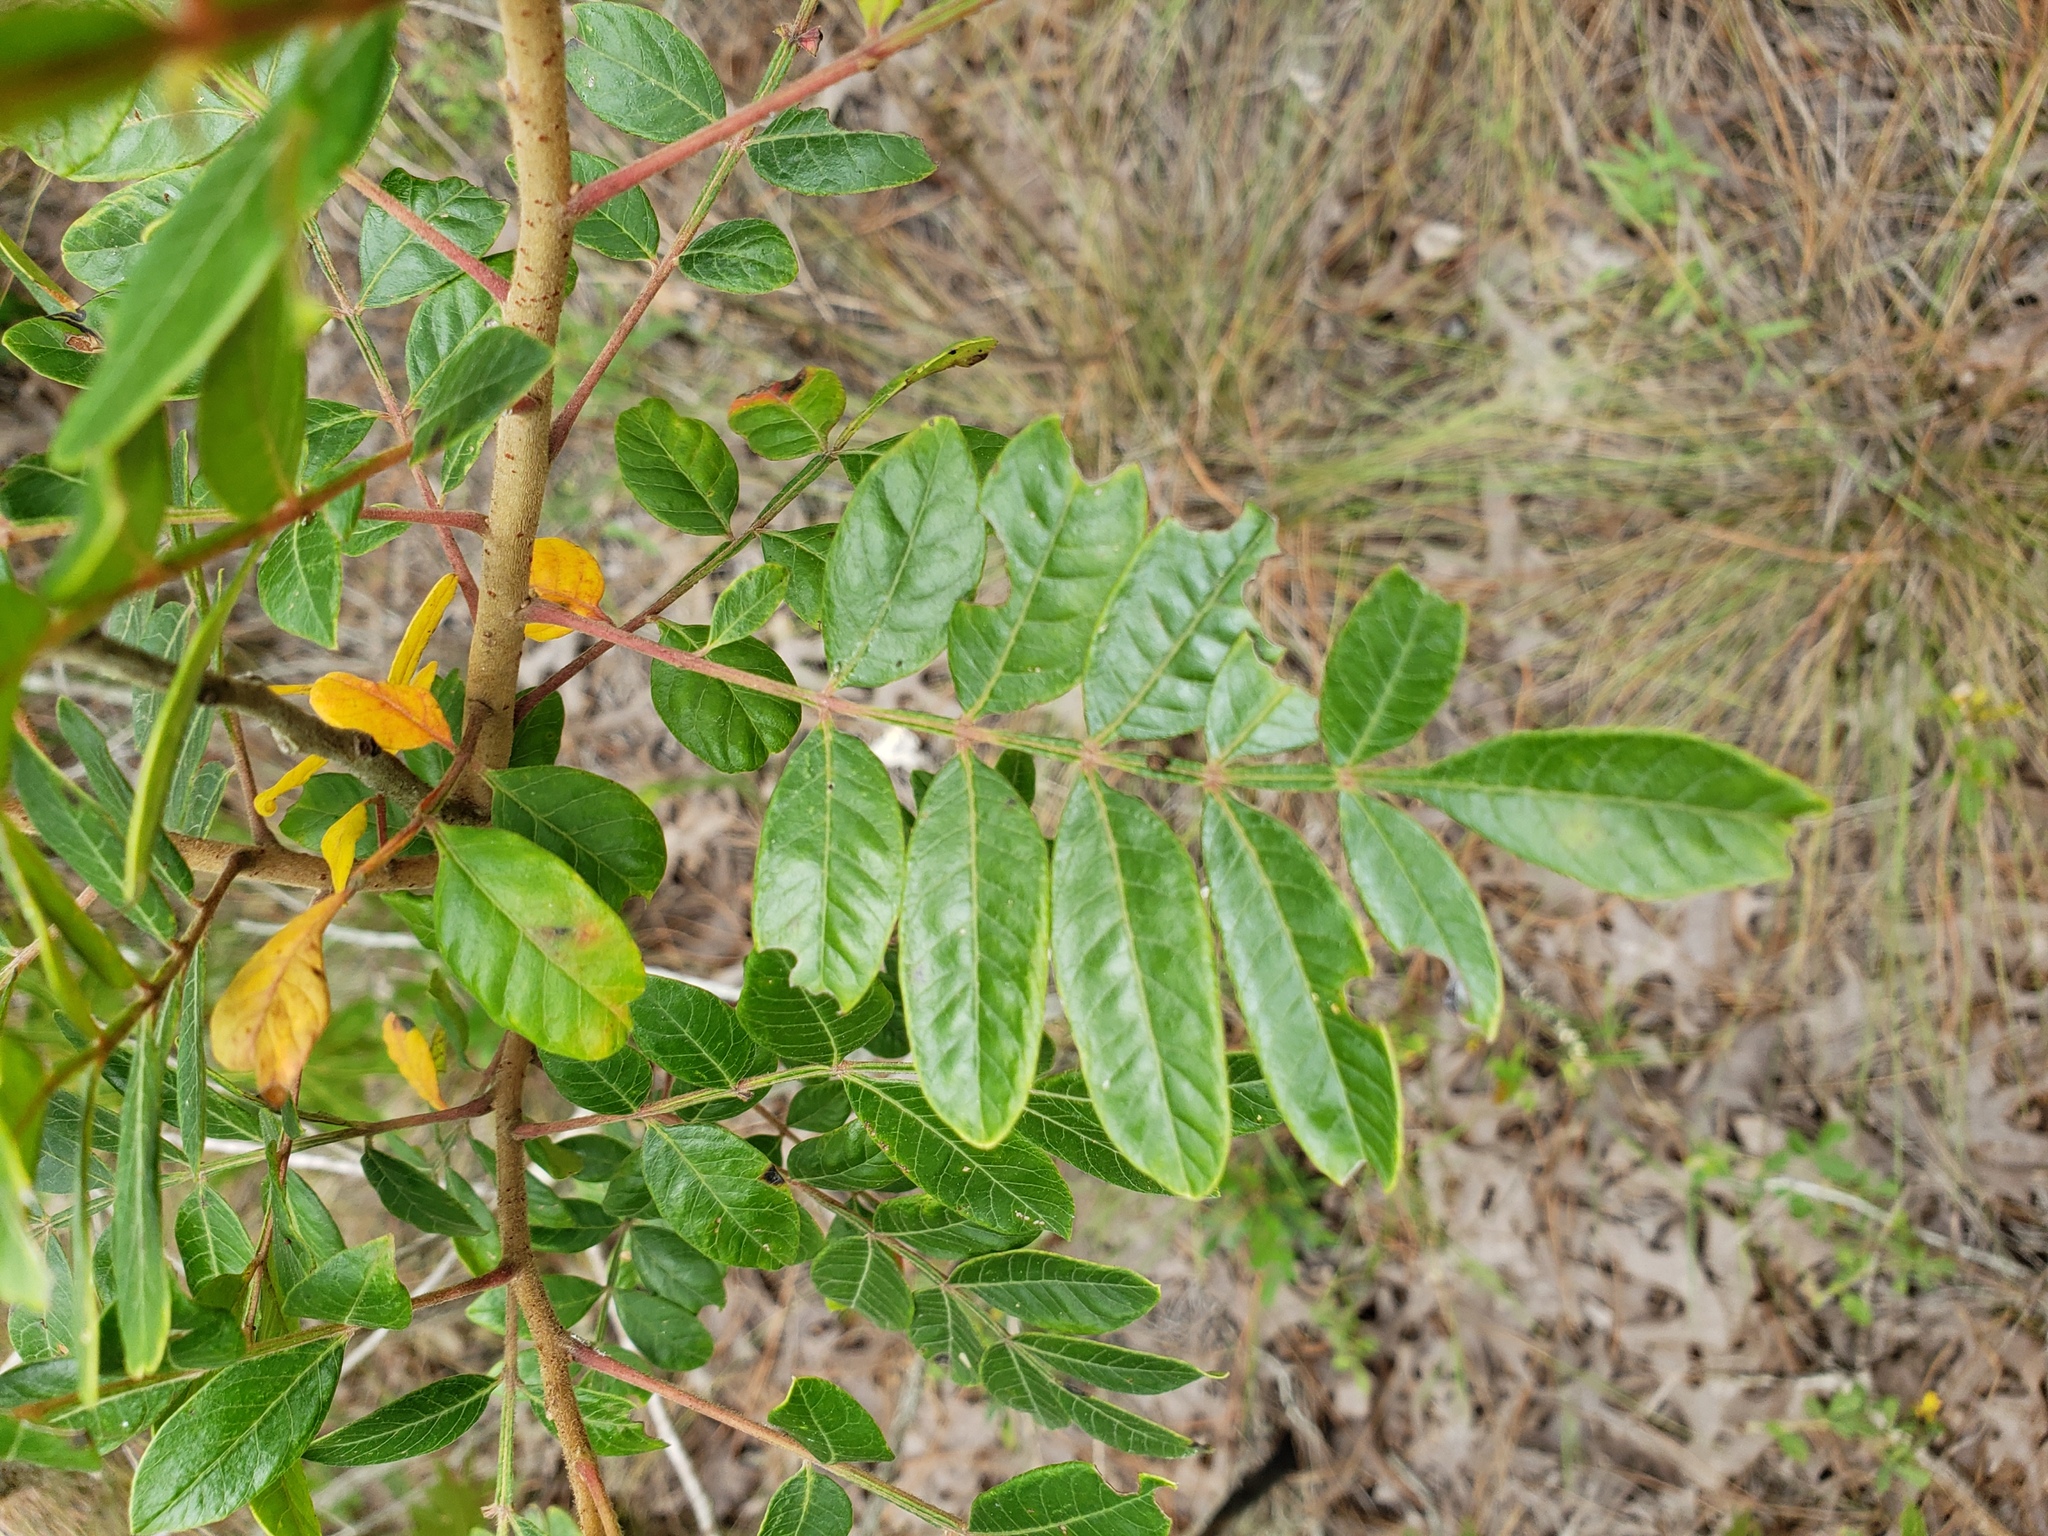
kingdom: Plantae
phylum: Tracheophyta
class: Magnoliopsida
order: Sapindales
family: Anacardiaceae
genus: Rhus
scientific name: Rhus copallina
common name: Shining sumac
